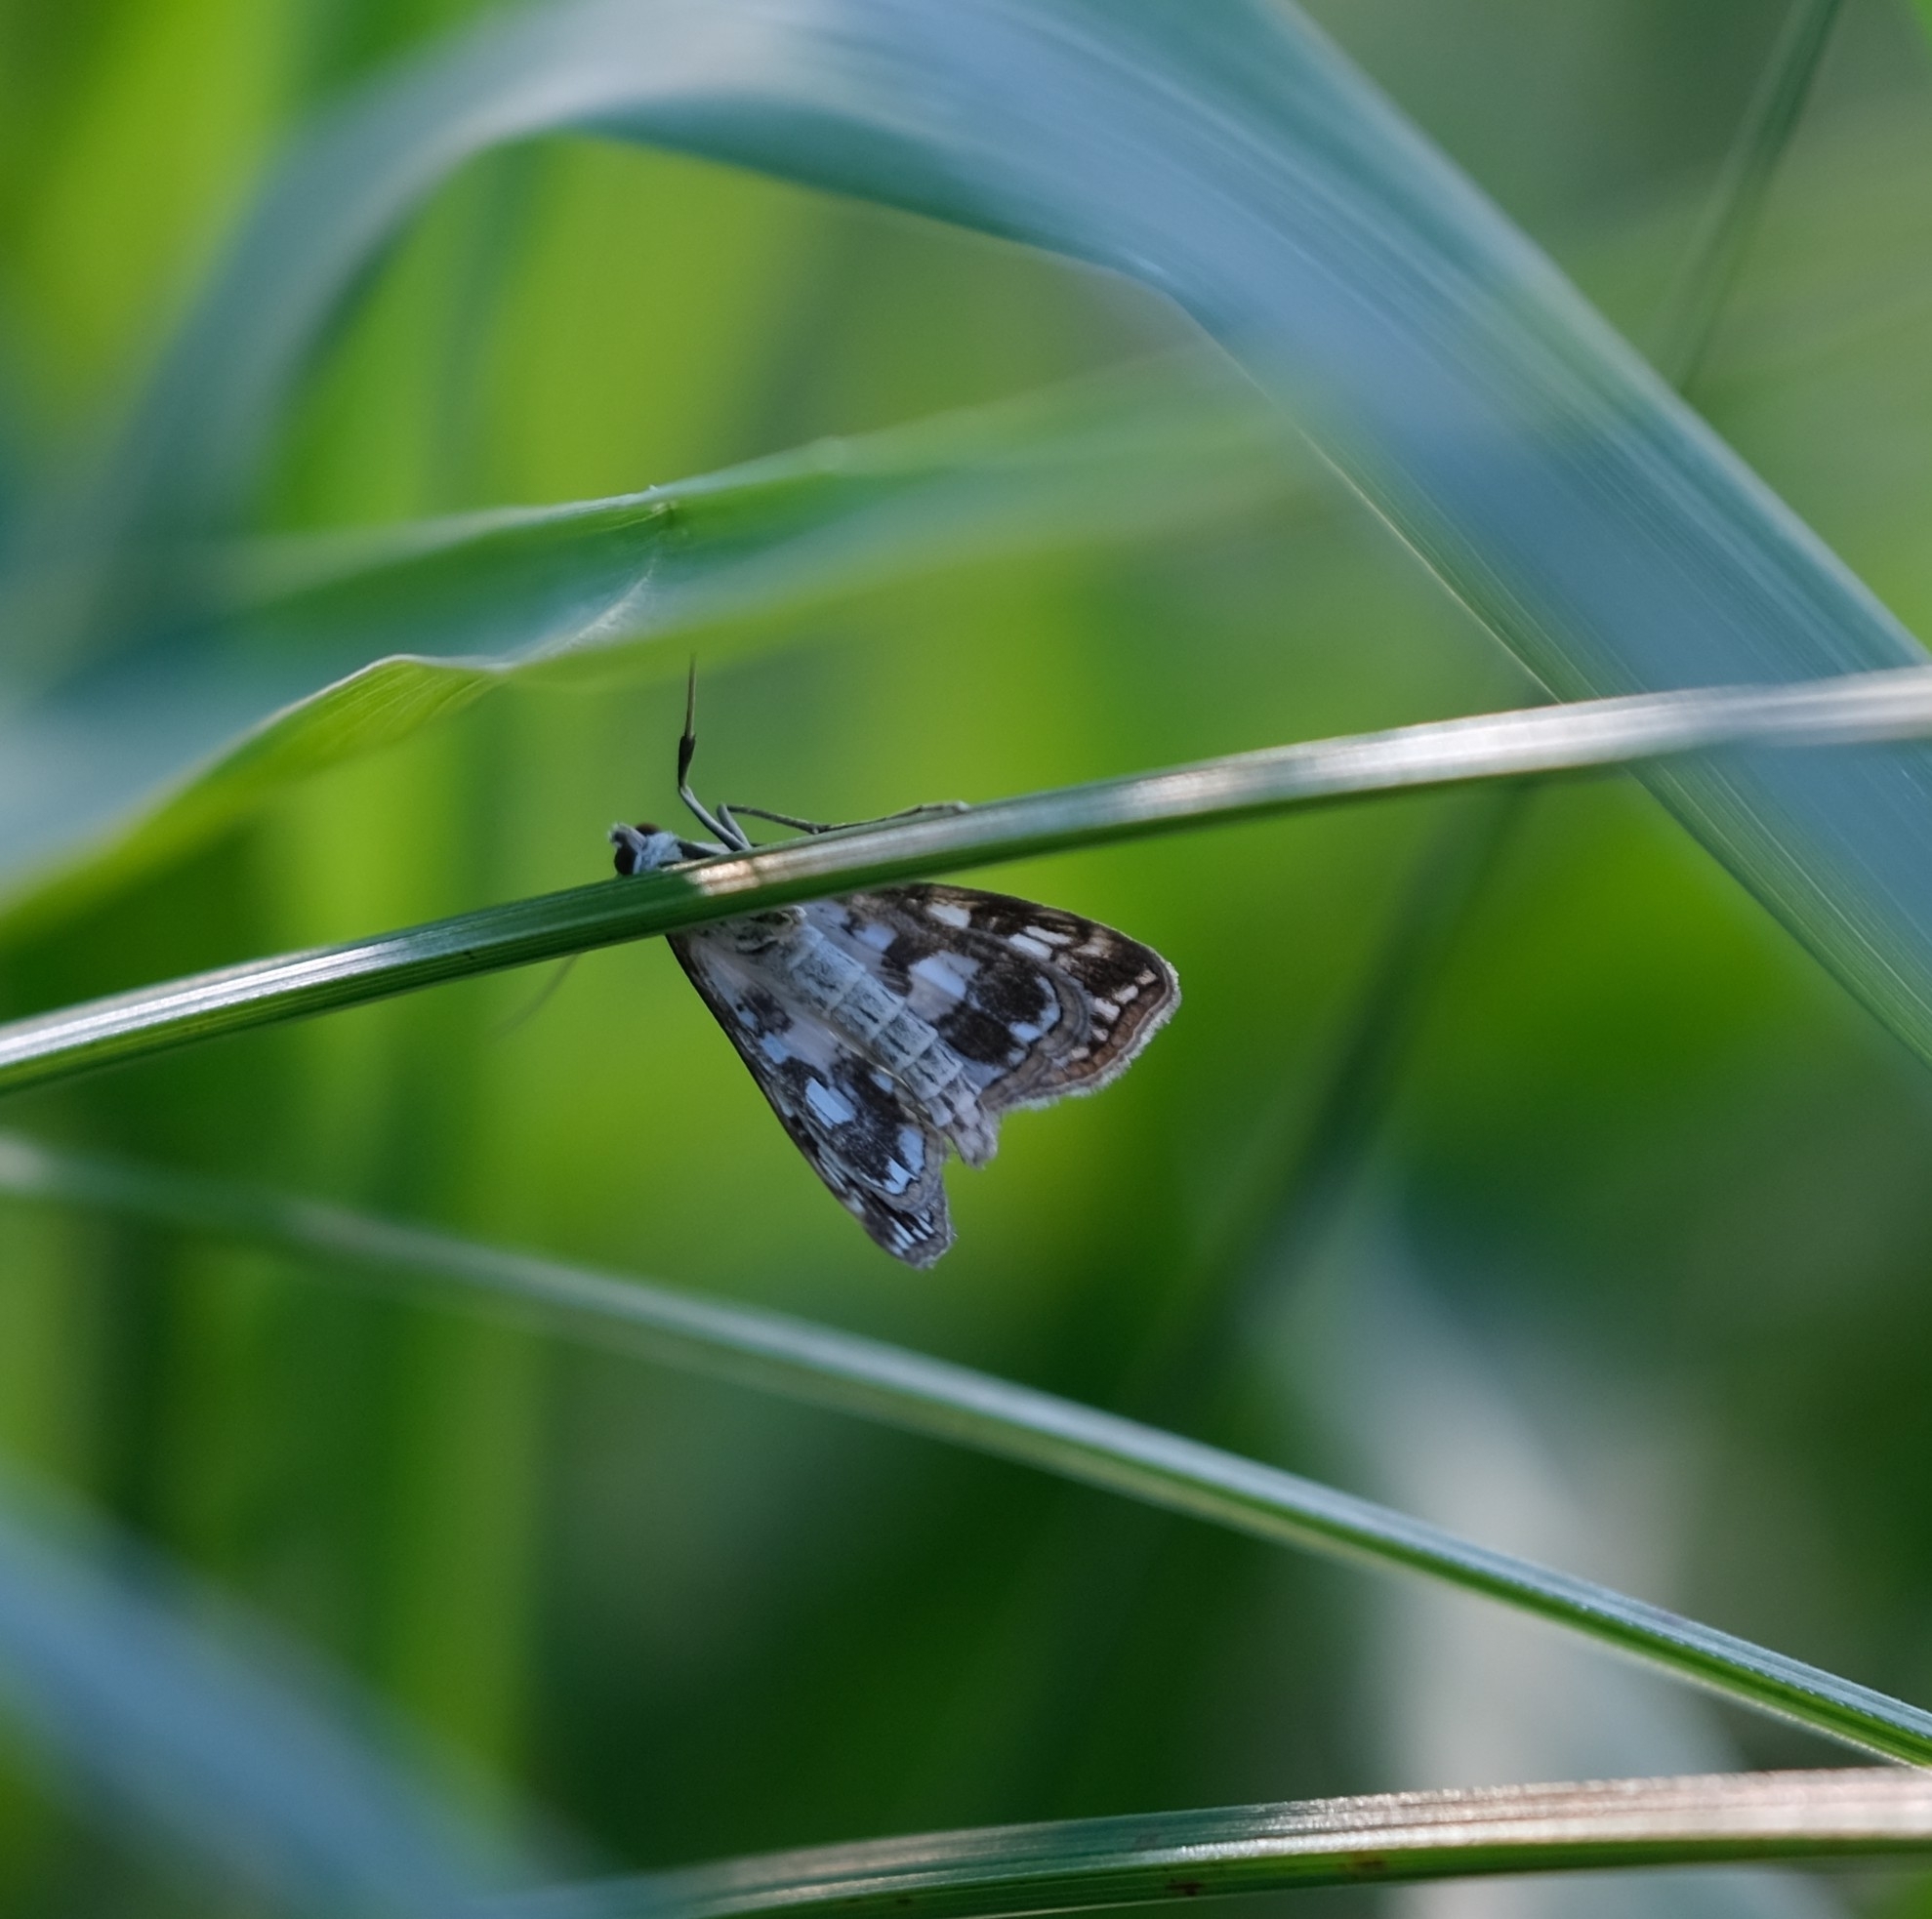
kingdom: Animalia
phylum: Arthropoda
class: Insecta
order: Lepidoptera
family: Crambidae
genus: Elophila
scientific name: Elophila nymphaeata
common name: Brown china-mark
